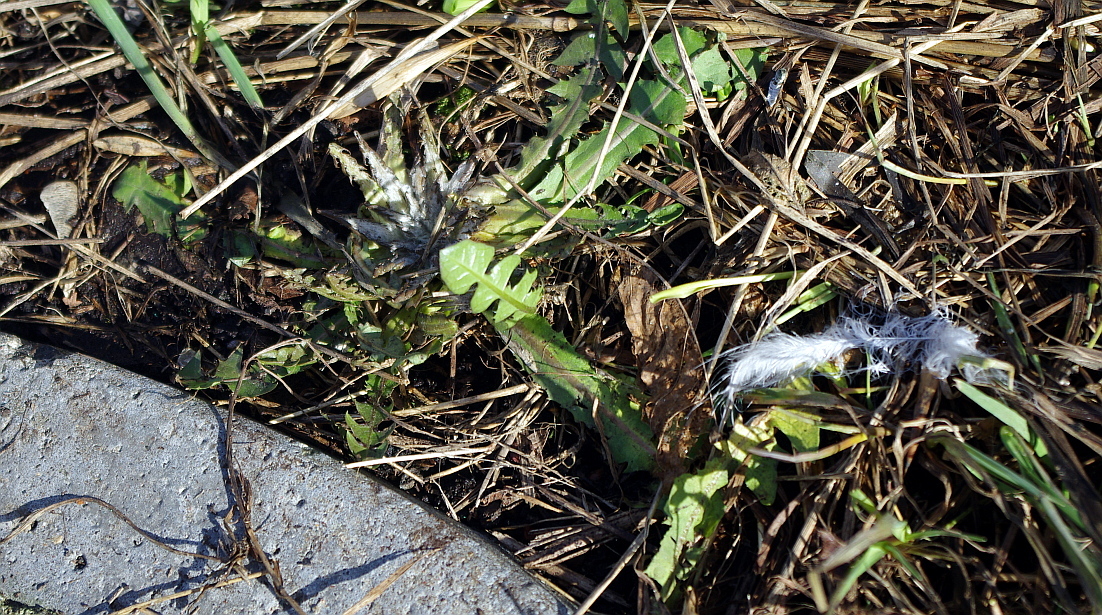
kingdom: Plantae
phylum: Tracheophyta
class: Magnoliopsida
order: Asterales
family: Asteraceae
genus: Taraxacum
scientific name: Taraxacum officinale
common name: Common dandelion
